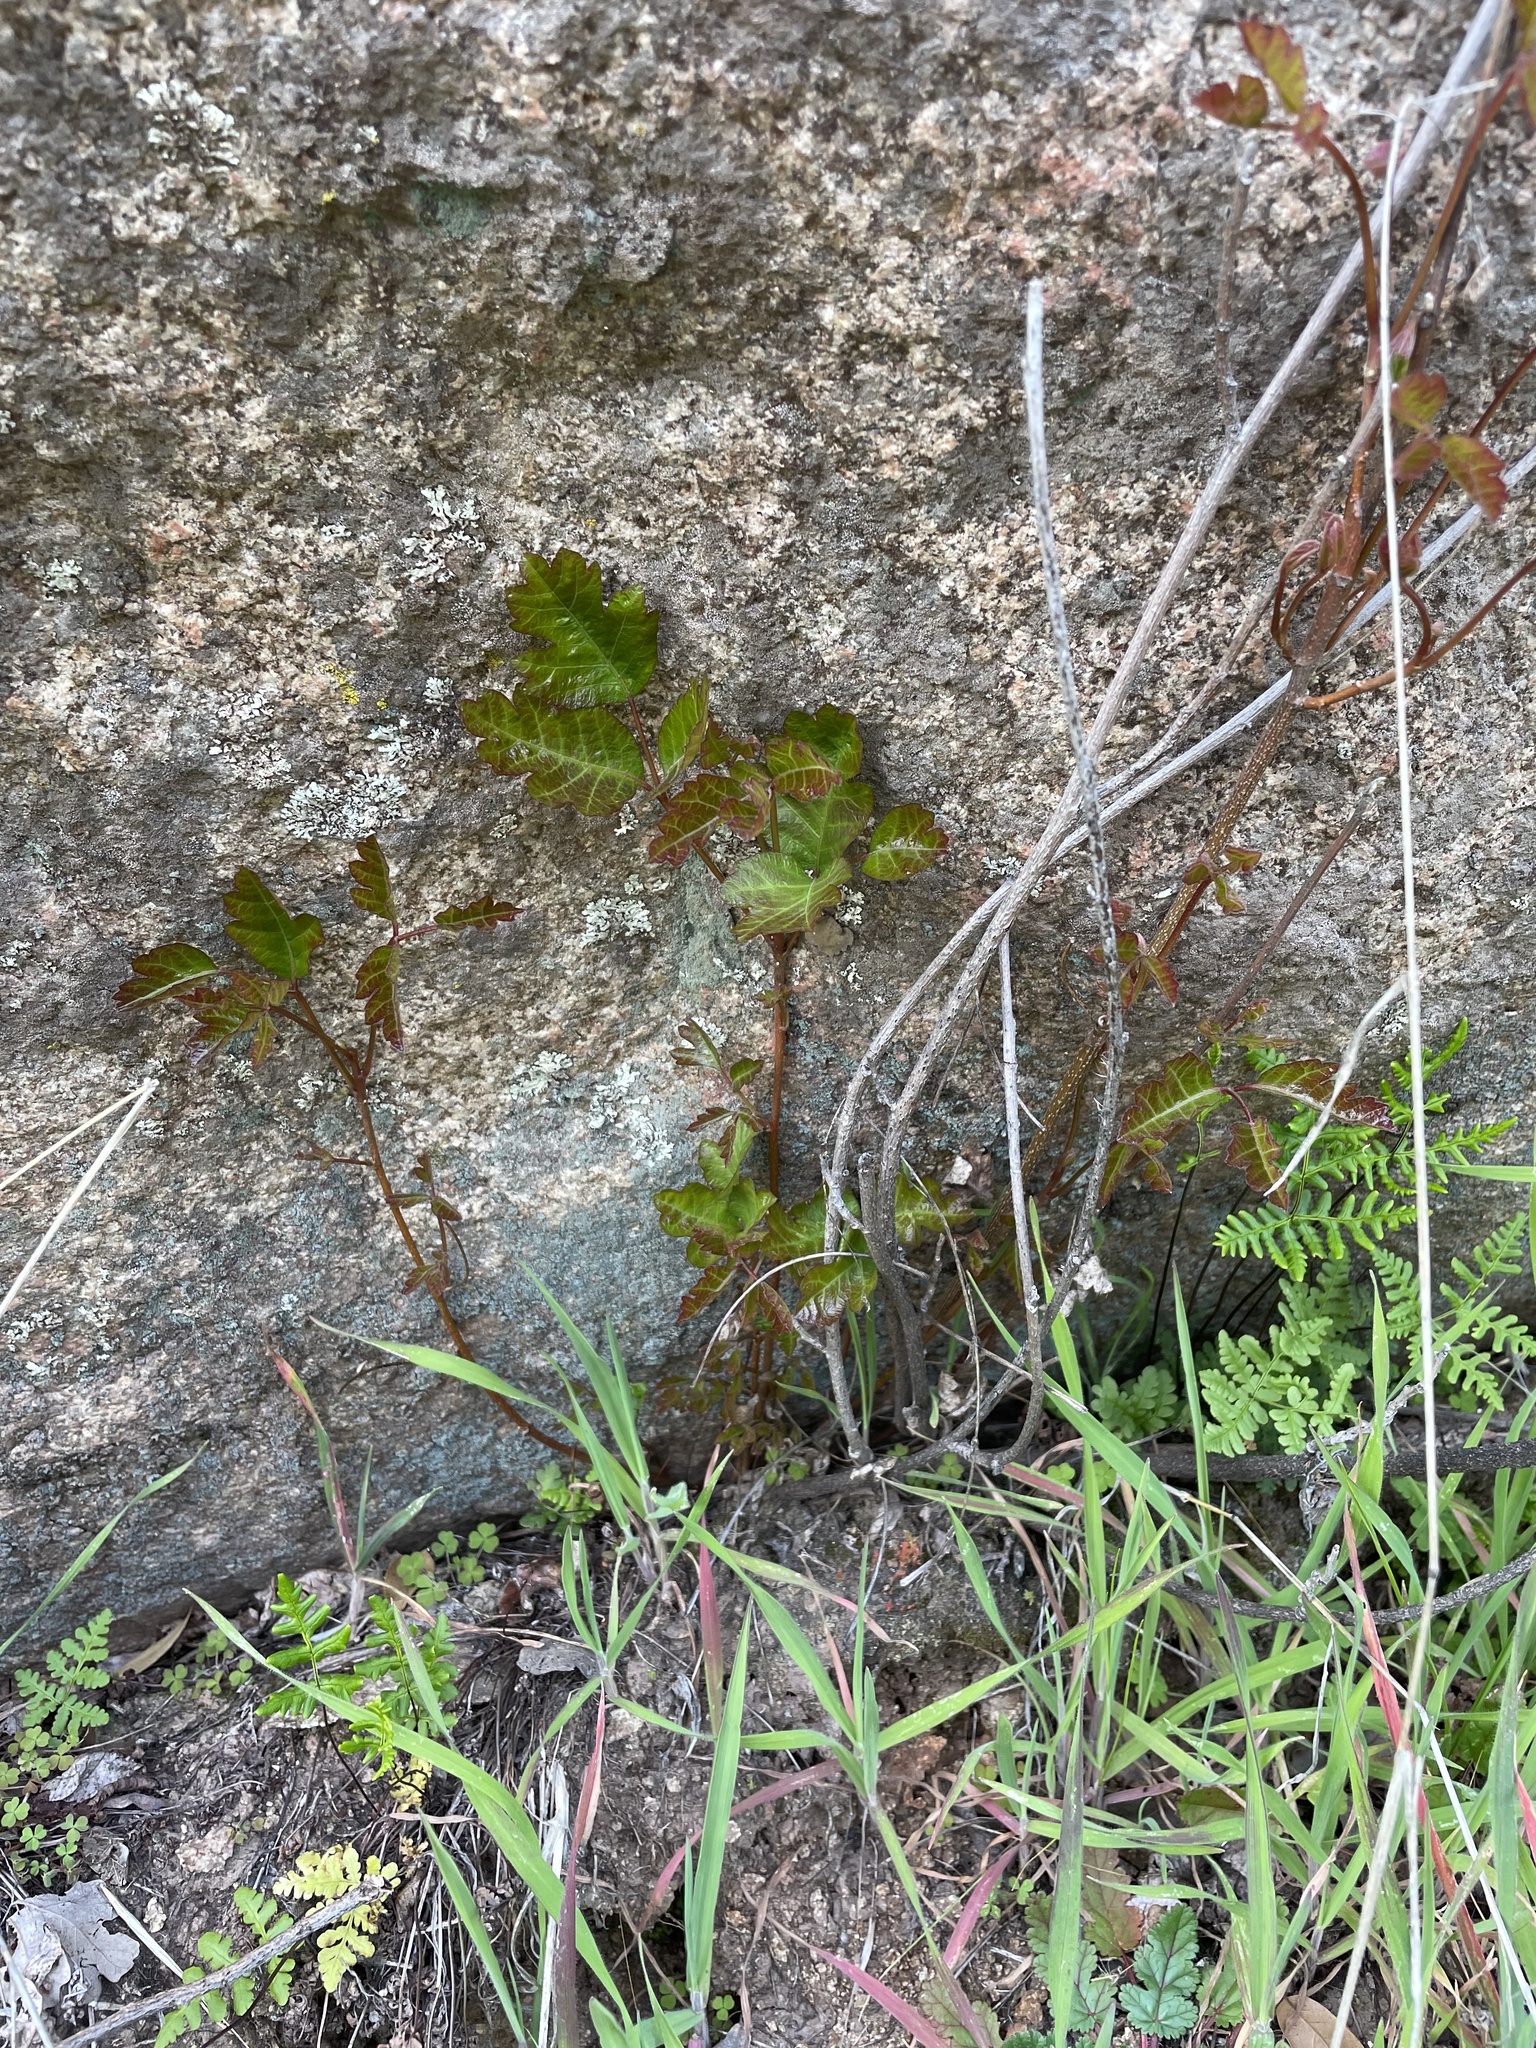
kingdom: Plantae
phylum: Tracheophyta
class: Magnoliopsida
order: Sapindales
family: Anacardiaceae
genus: Toxicodendron
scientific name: Toxicodendron diversilobum
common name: Pacific poison-oak
